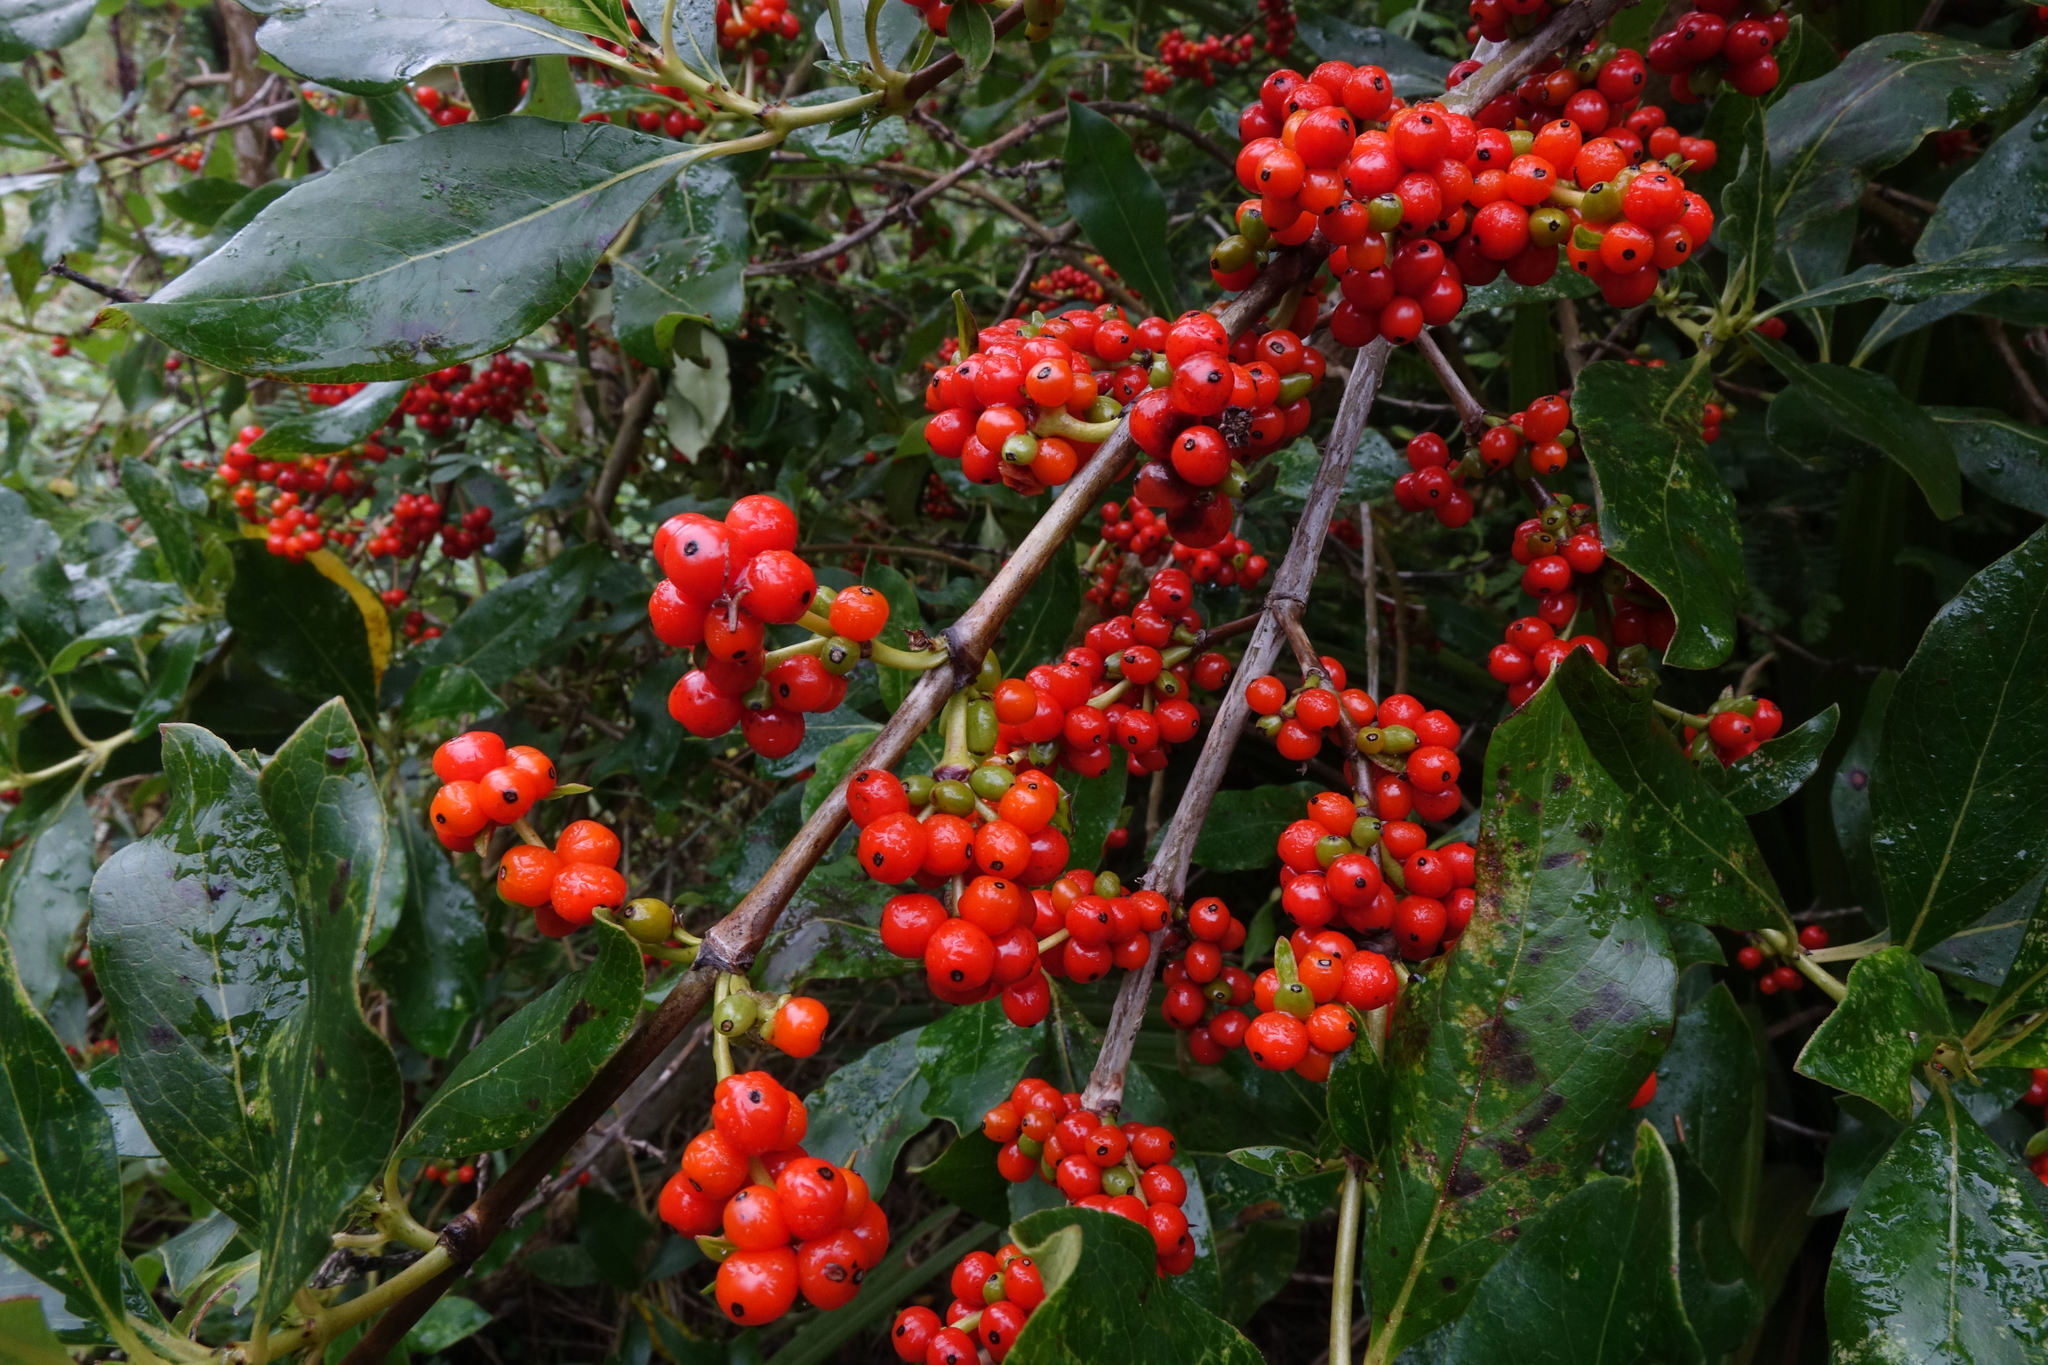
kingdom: Plantae
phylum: Tracheophyta
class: Magnoliopsida
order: Gentianales
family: Rubiaceae
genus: Coprosma
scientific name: Coprosma robusta
